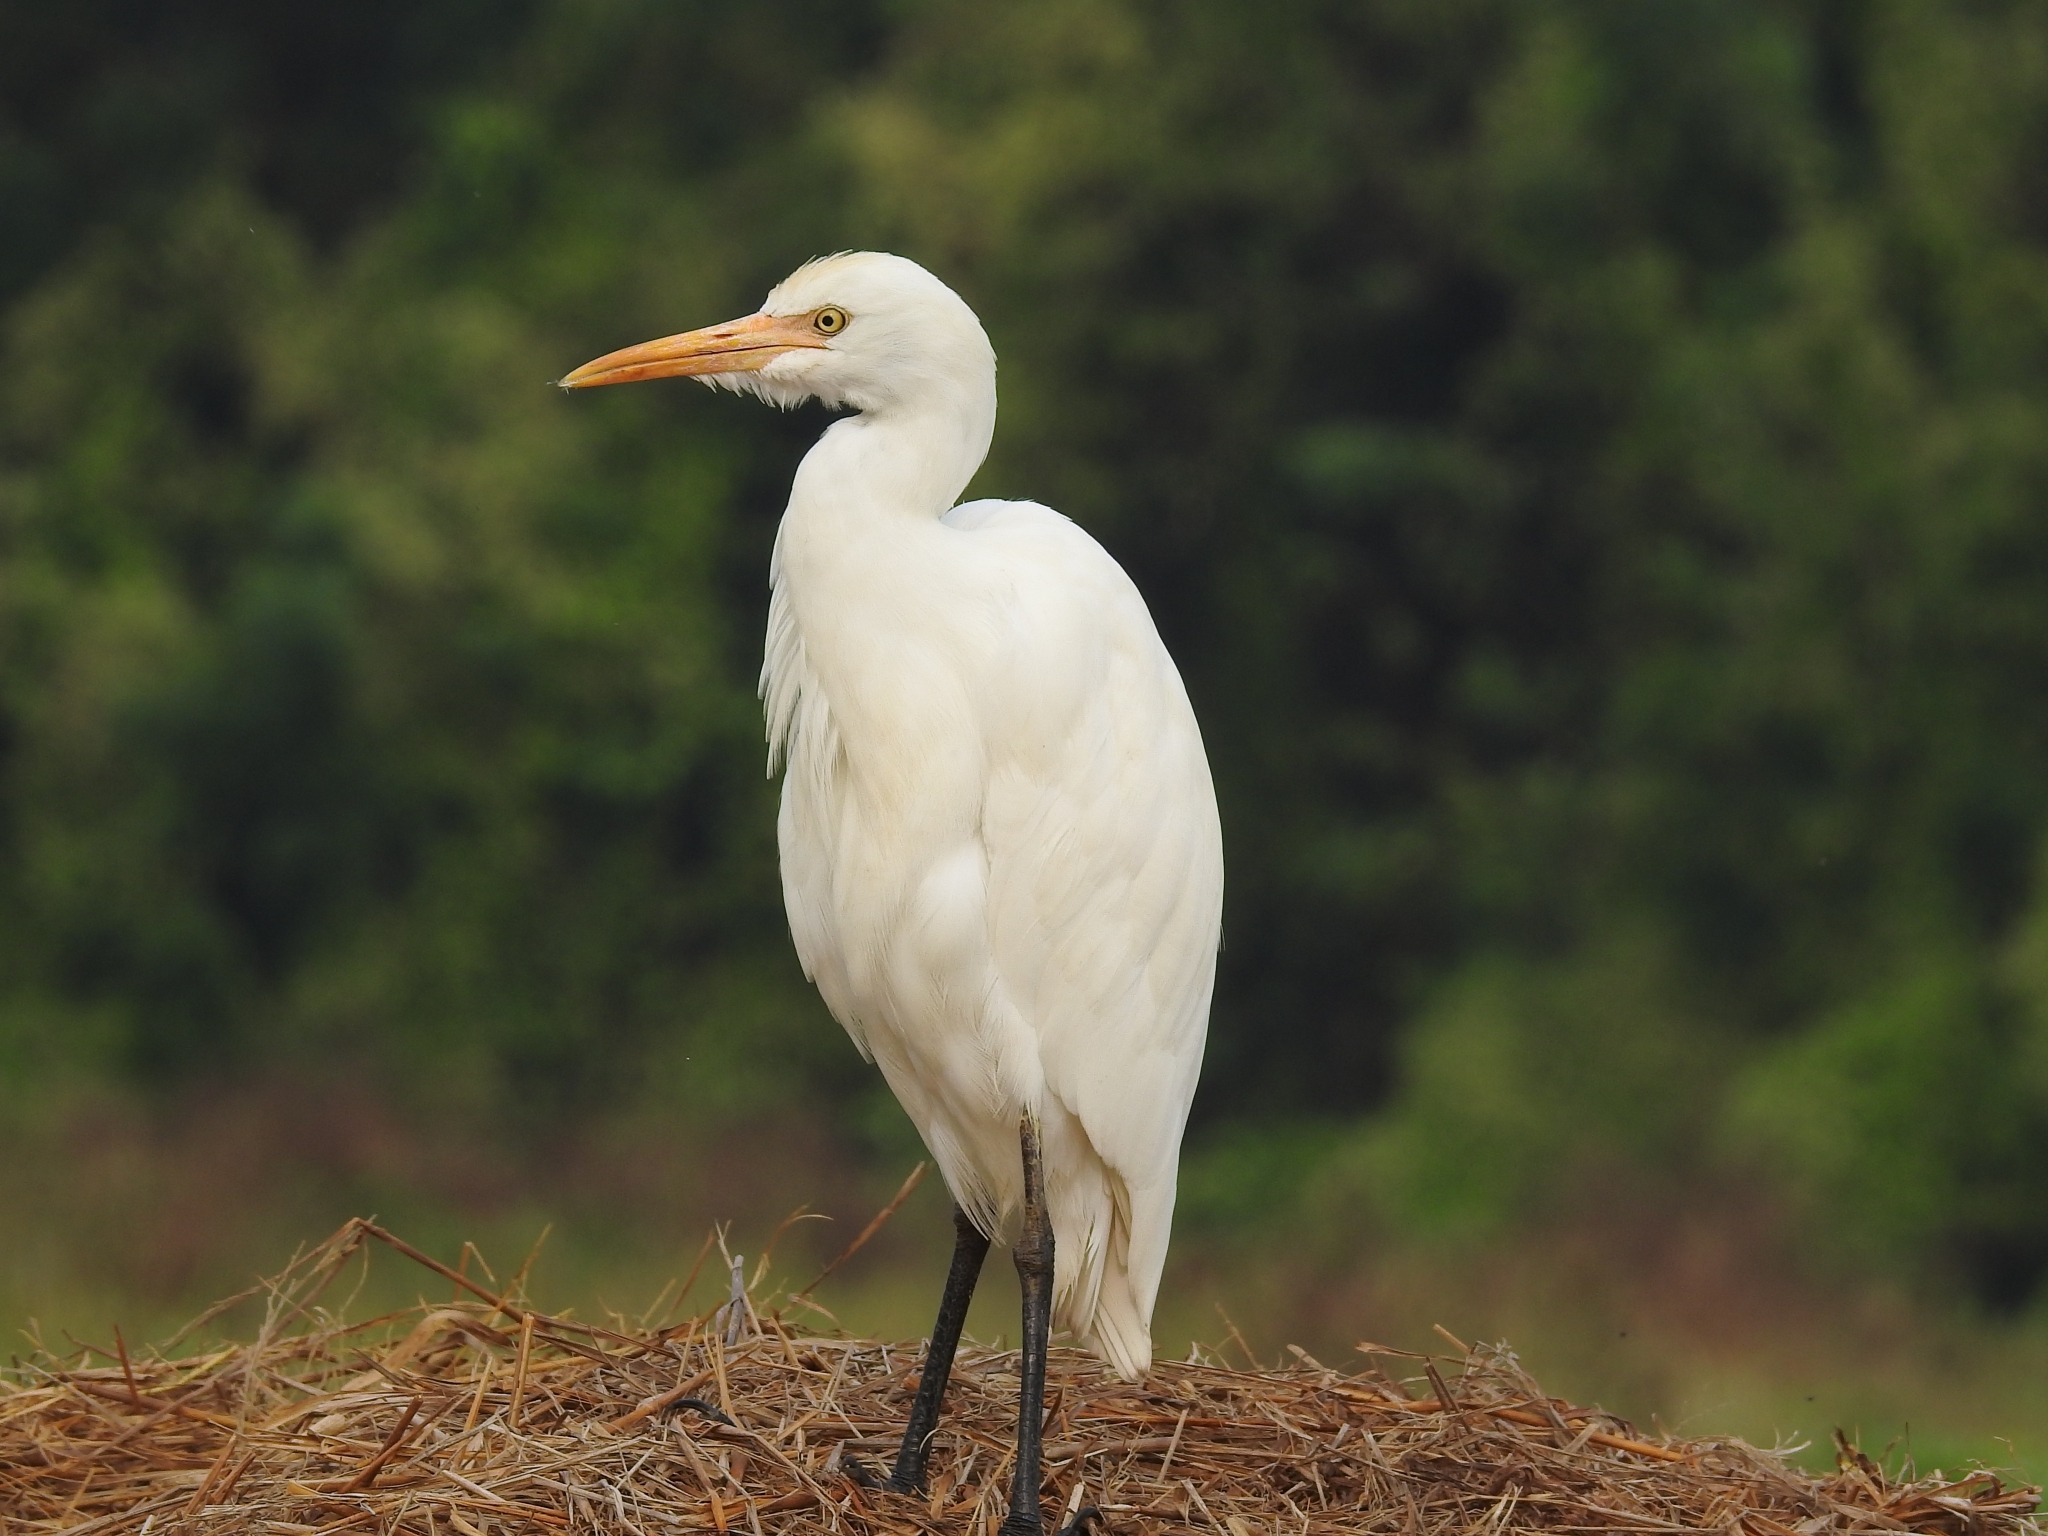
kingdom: Animalia
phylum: Chordata
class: Aves
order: Pelecaniformes
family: Ardeidae
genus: Bubulcus
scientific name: Bubulcus coromandus
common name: Eastern cattle egret
